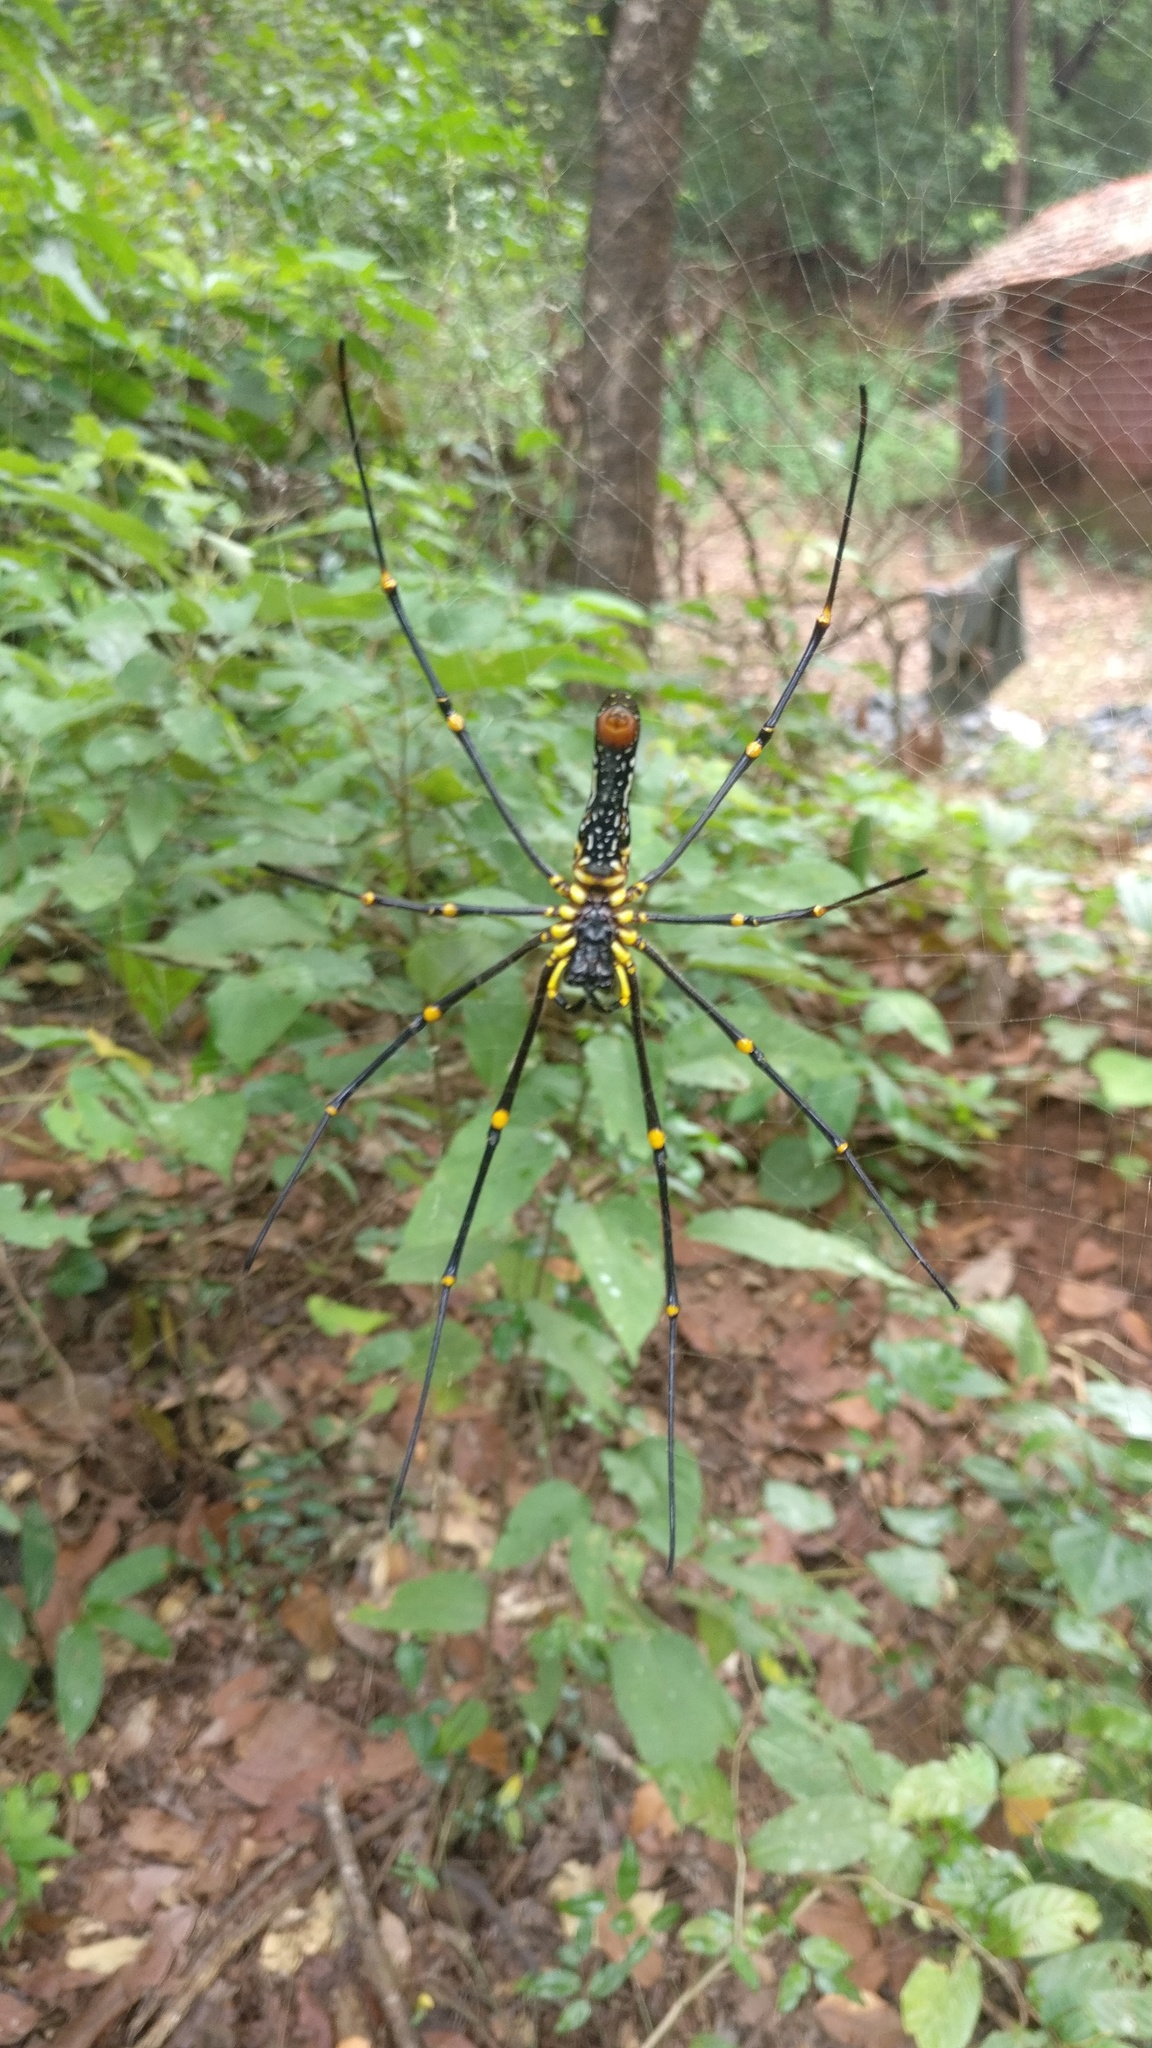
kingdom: Animalia
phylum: Arthropoda
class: Arachnida
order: Araneae
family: Araneidae
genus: Nephila
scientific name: Nephila pilipes
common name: Giant golden orb weaver
